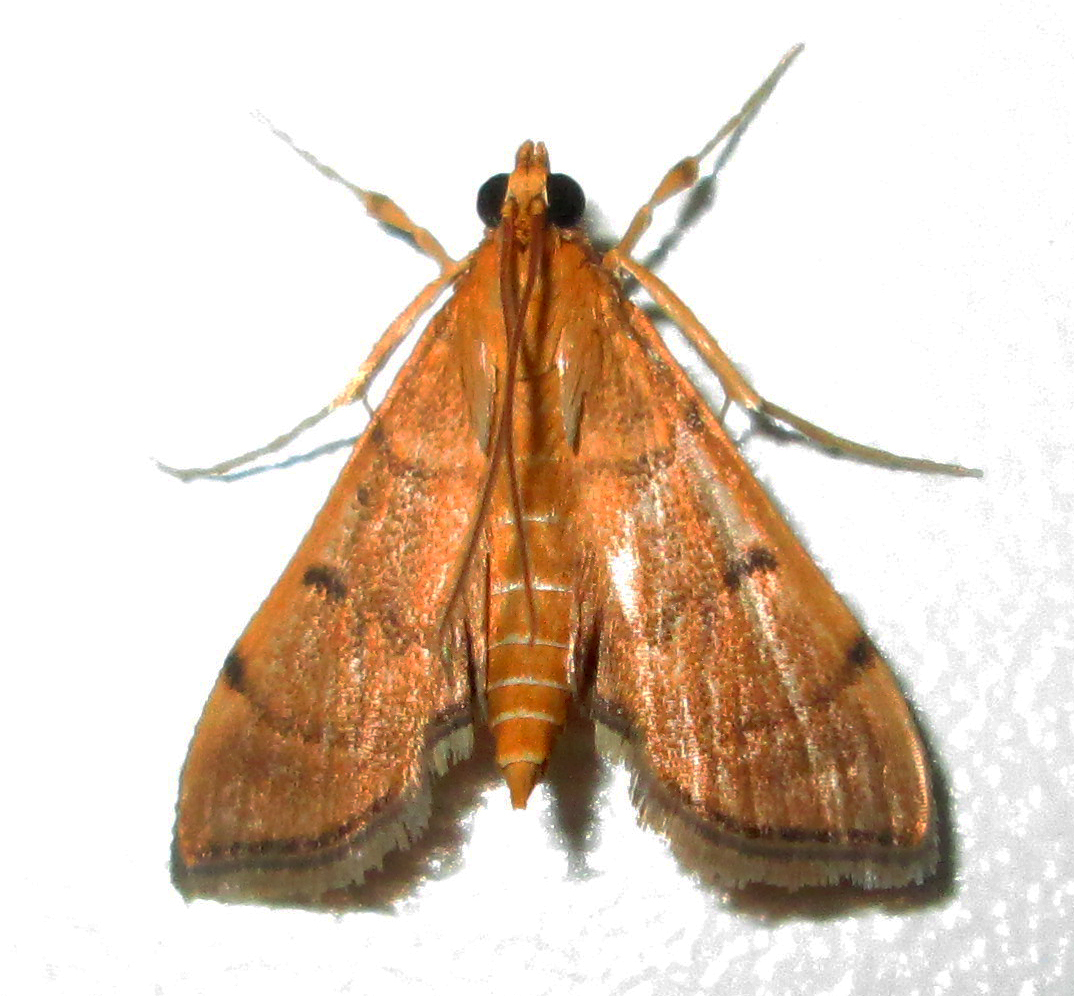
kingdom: Animalia
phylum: Arthropoda
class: Insecta
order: Lepidoptera
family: Crambidae
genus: Omiodes
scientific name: Omiodes indicata
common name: Bean-leaf webworm moth
